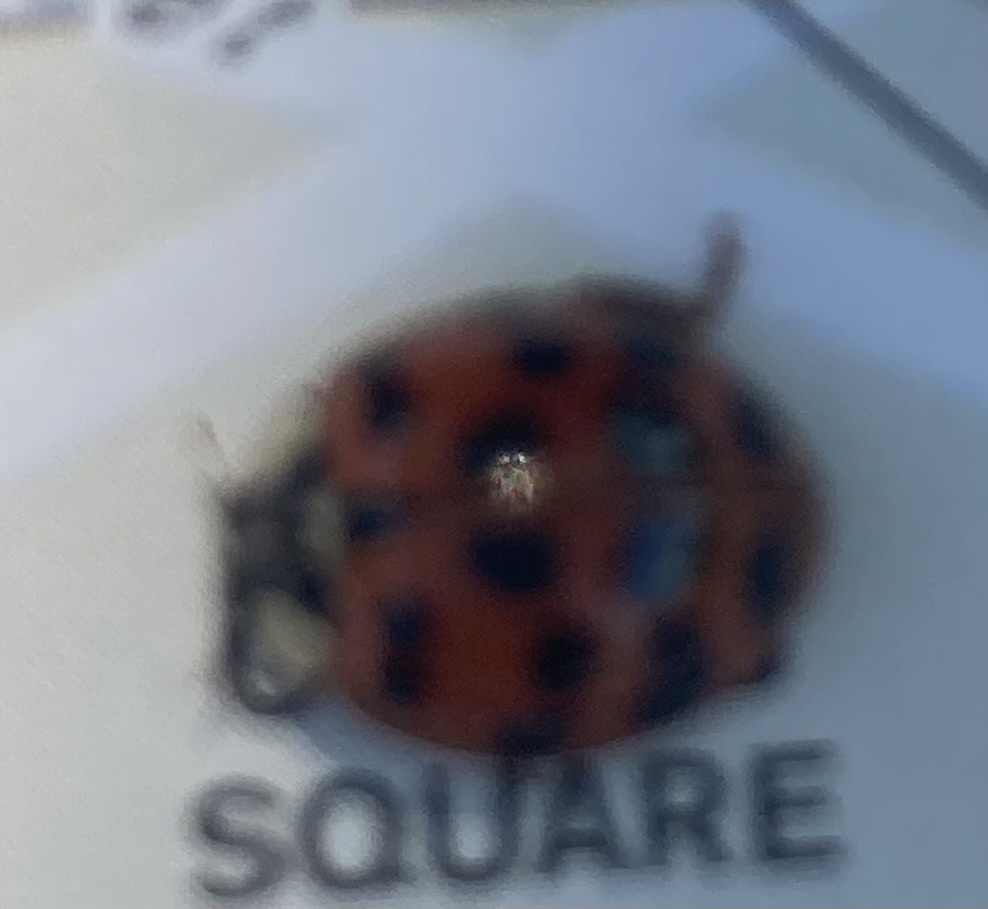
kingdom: Animalia
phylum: Arthropoda
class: Insecta
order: Coleoptera
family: Coccinellidae
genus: Harmonia
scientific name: Harmonia axyridis
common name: Harlequin ladybird
